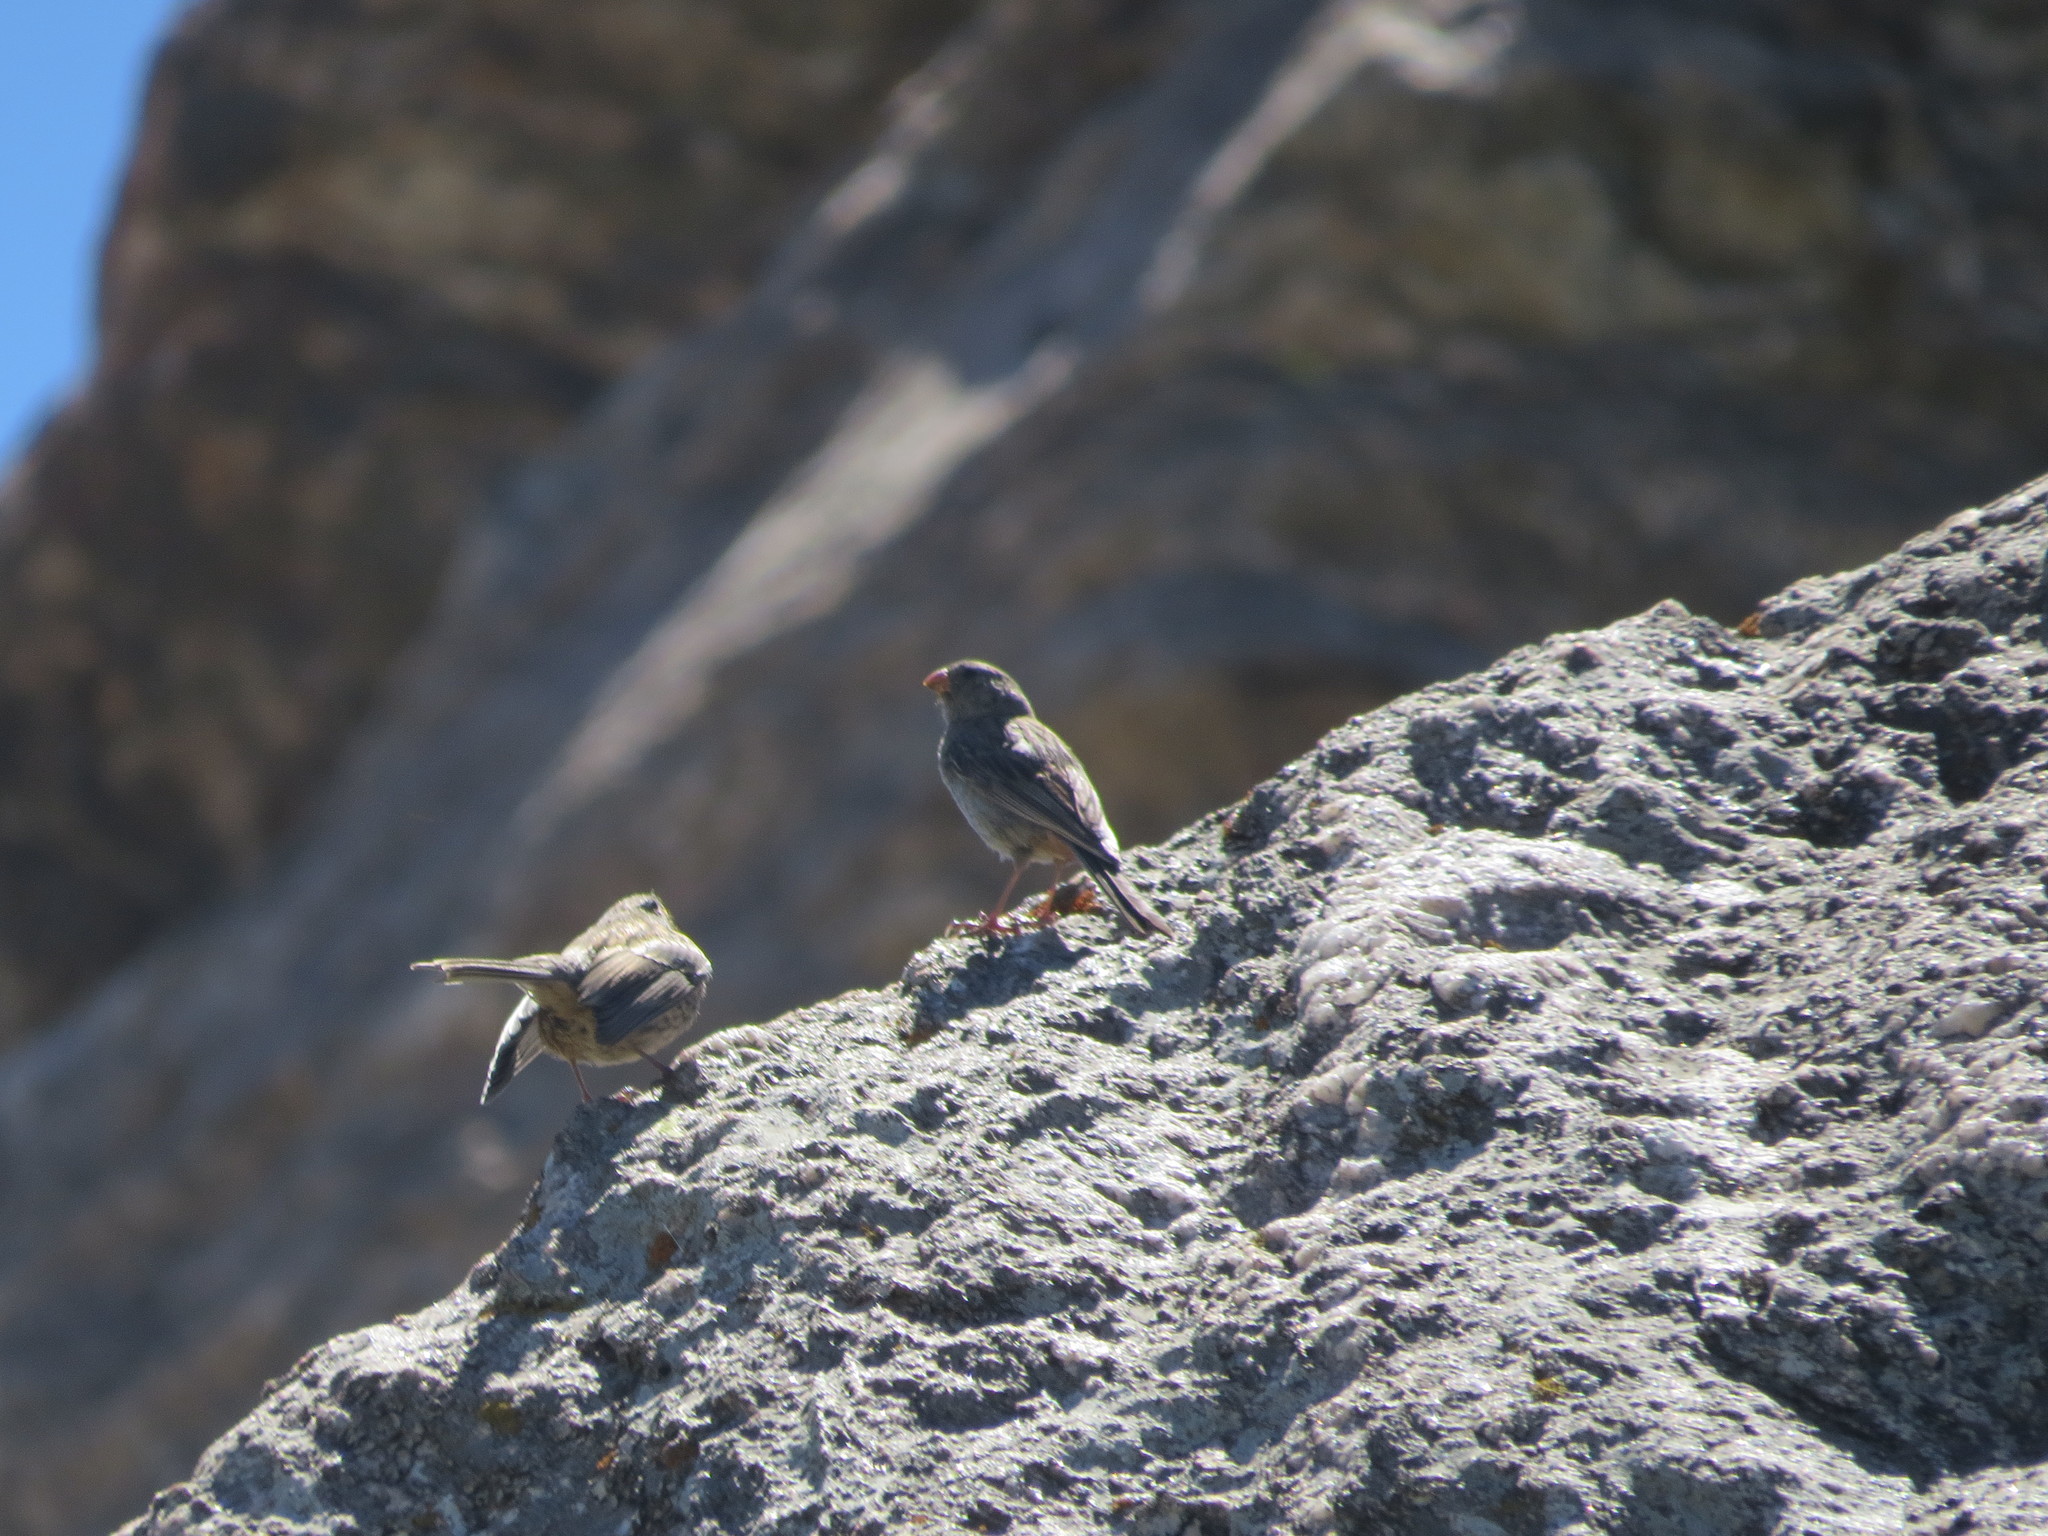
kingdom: Animalia
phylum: Chordata
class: Aves
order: Passeriformes
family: Thraupidae
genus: Catamenia
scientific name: Catamenia inornata
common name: Plain-colored seedeater
